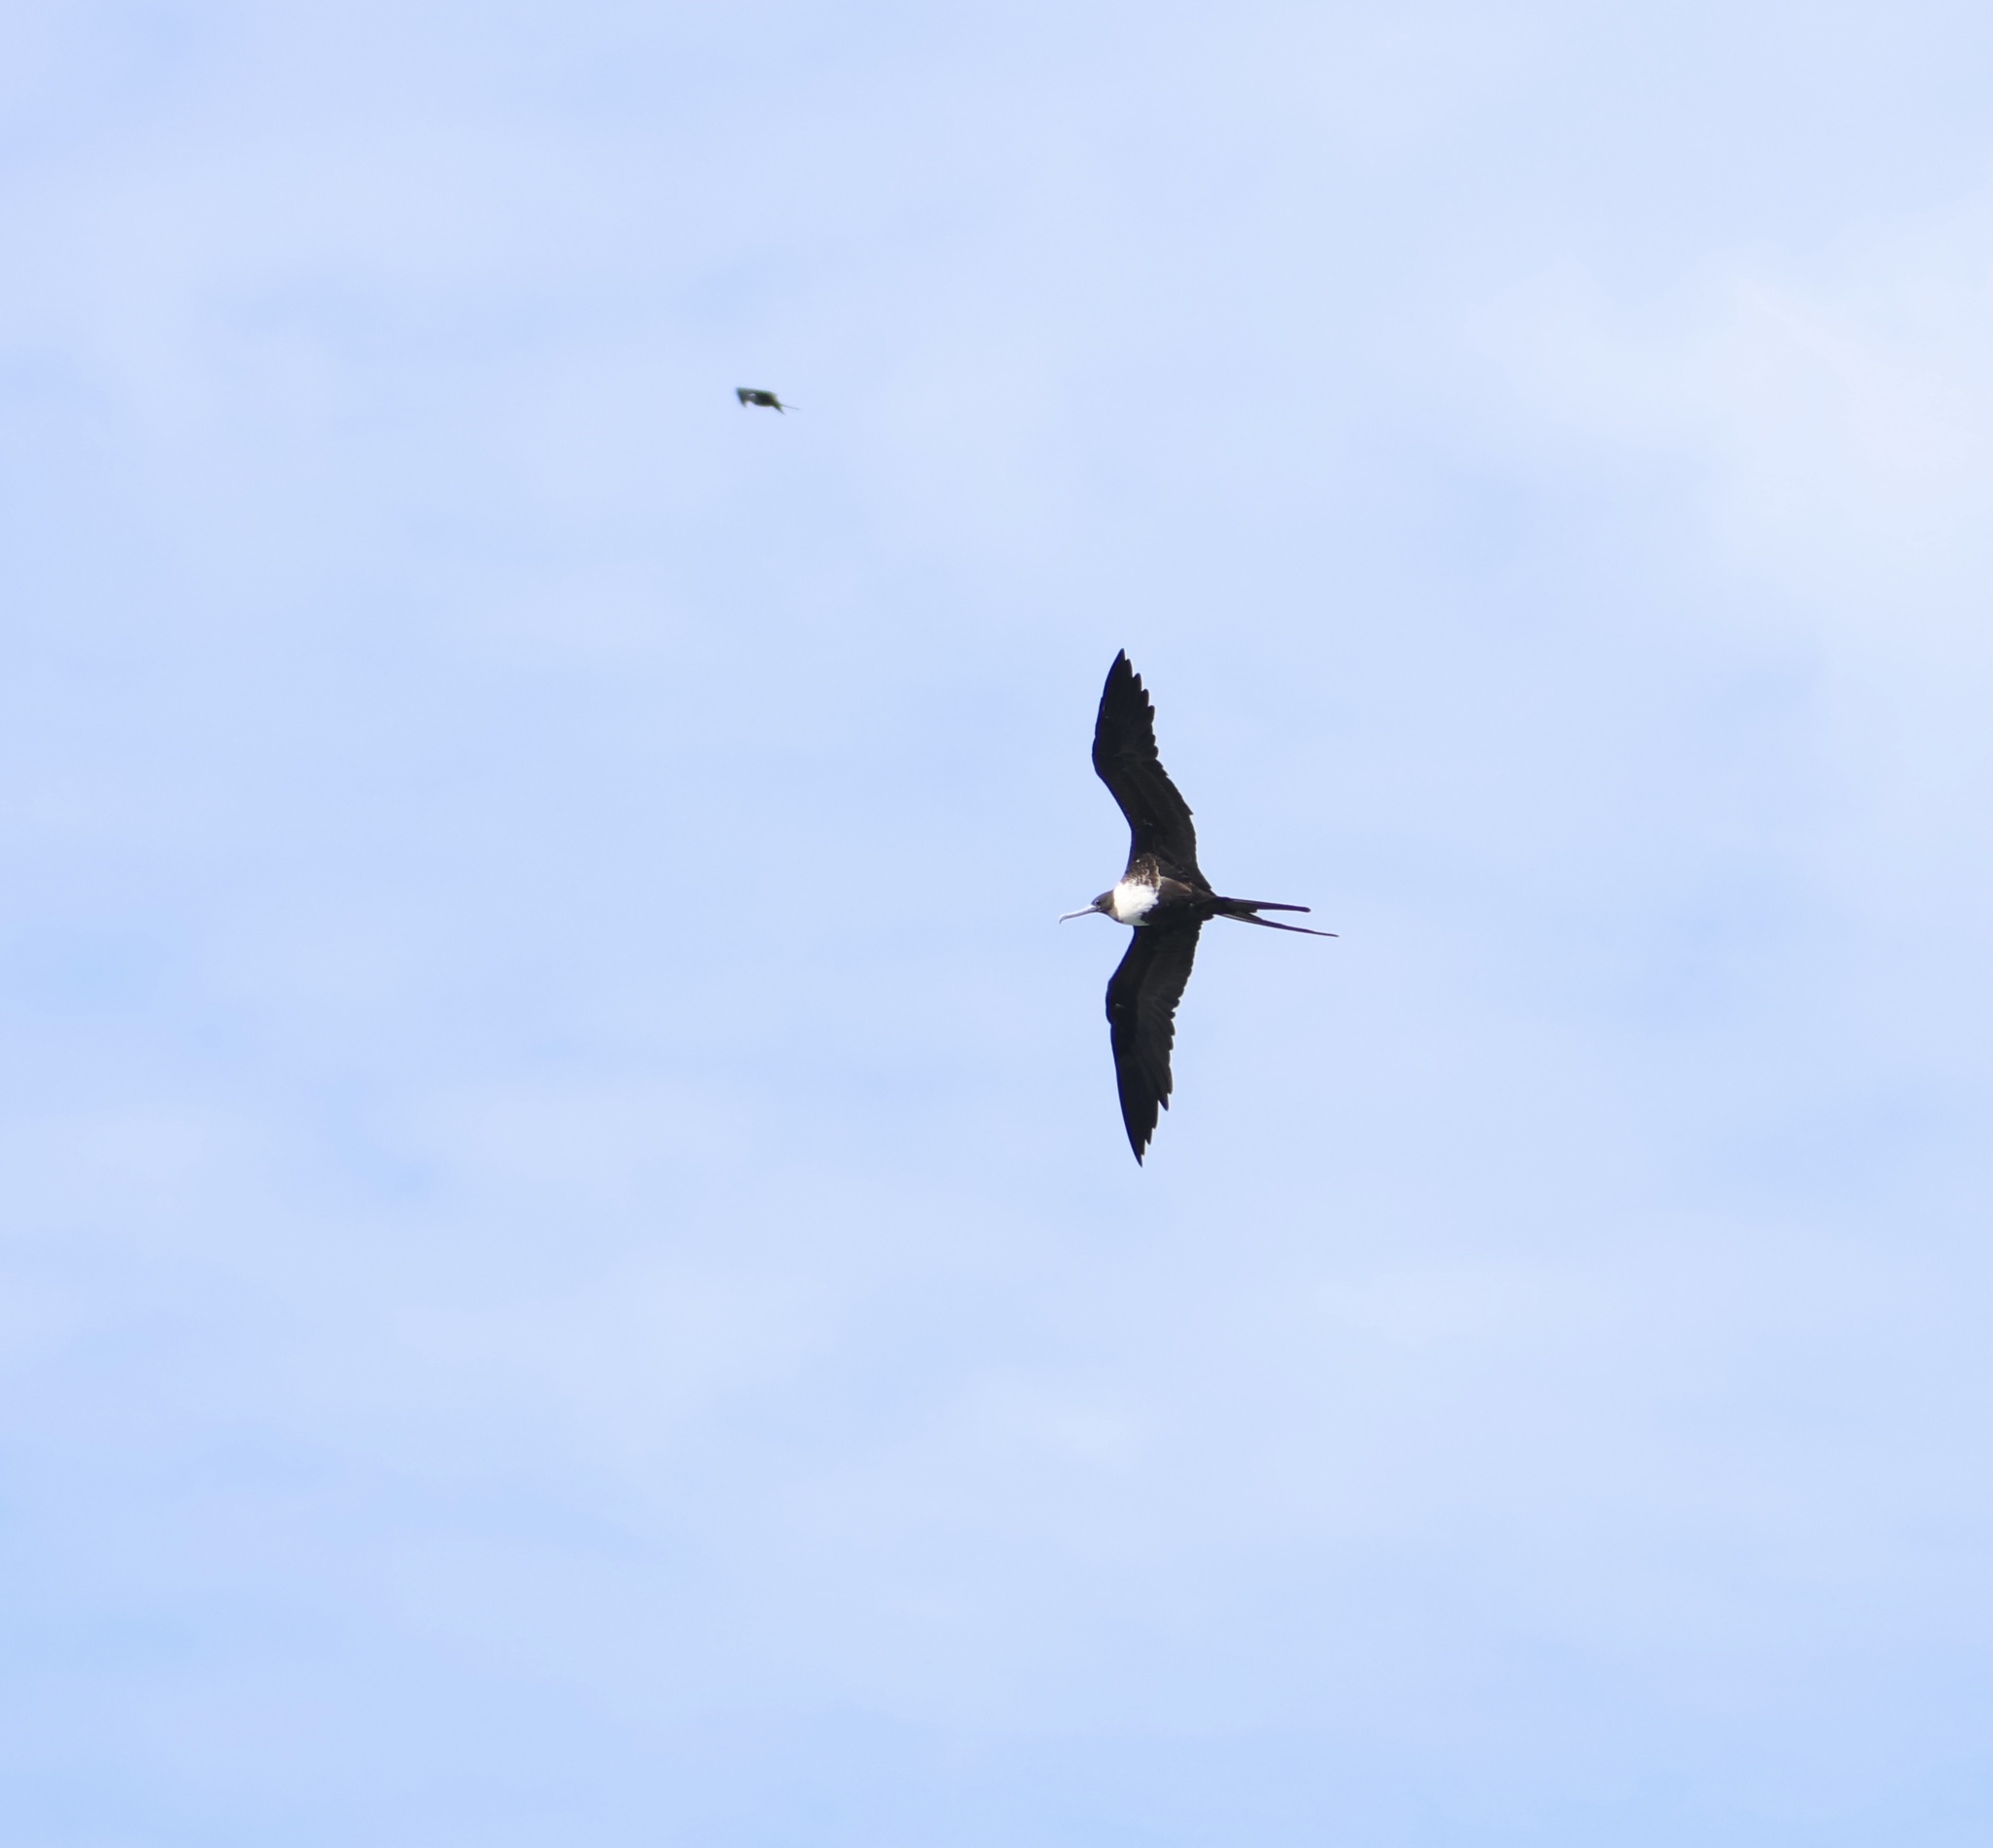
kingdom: Animalia
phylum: Chordata
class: Aves
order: Suliformes
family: Fregatidae
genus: Fregata
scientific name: Fregata magnificens
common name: Magnificent frigatebird
